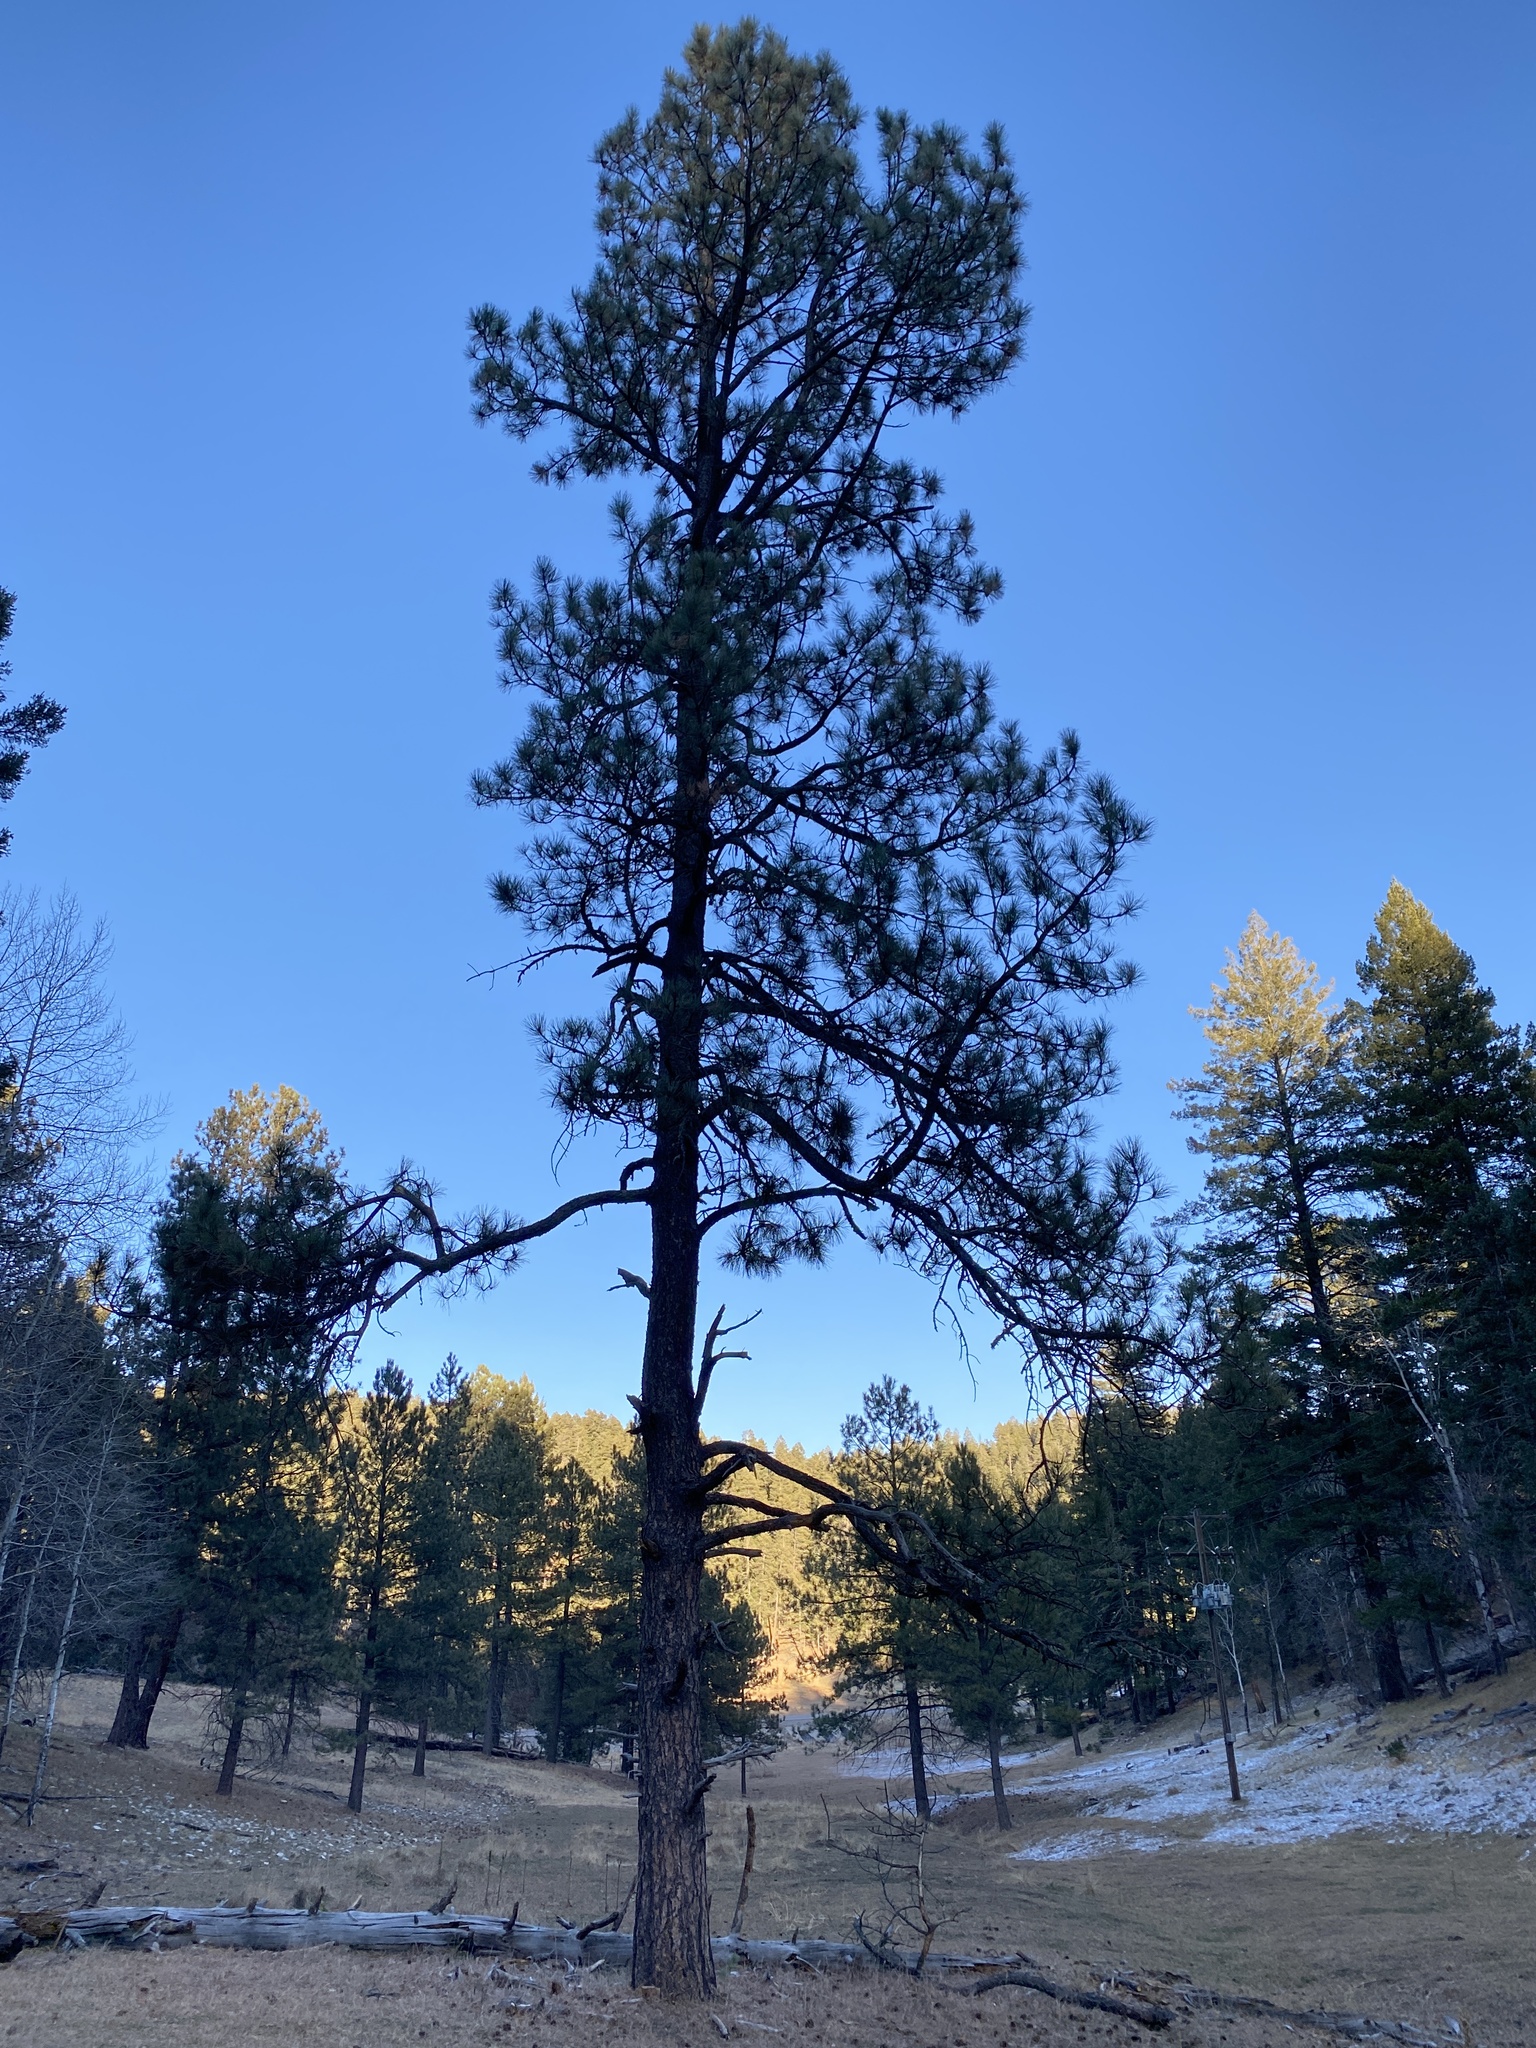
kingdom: Plantae
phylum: Tracheophyta
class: Pinopsida
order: Pinales
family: Pinaceae
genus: Pinus
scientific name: Pinus ponderosa
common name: Western yellow-pine
